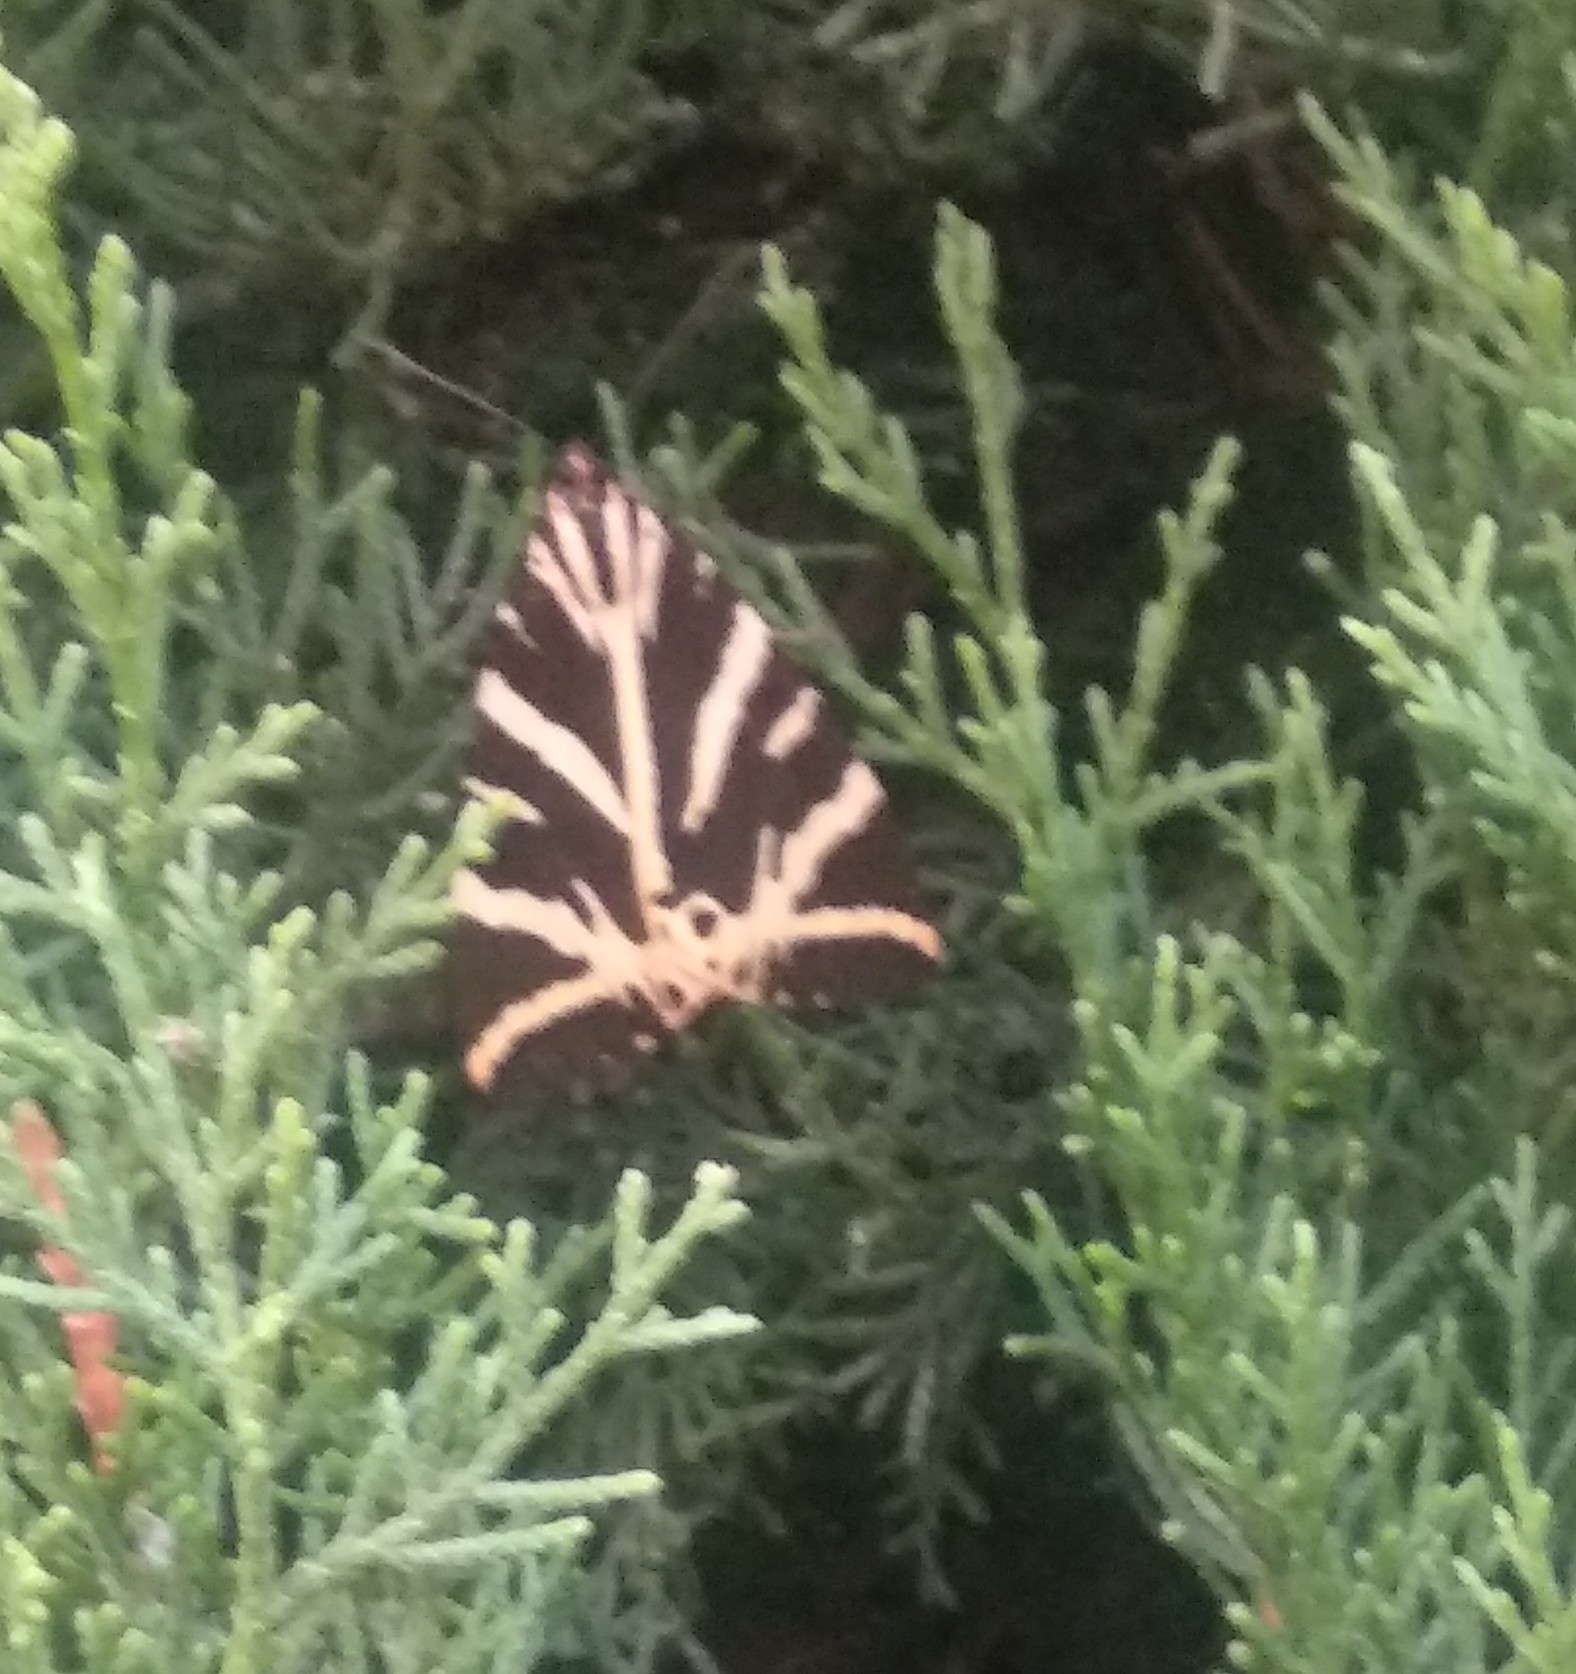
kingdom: Animalia
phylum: Arthropoda
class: Insecta
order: Lepidoptera
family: Erebidae
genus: Euplagia
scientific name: Euplagia quadripunctaria
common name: Jersey tiger
